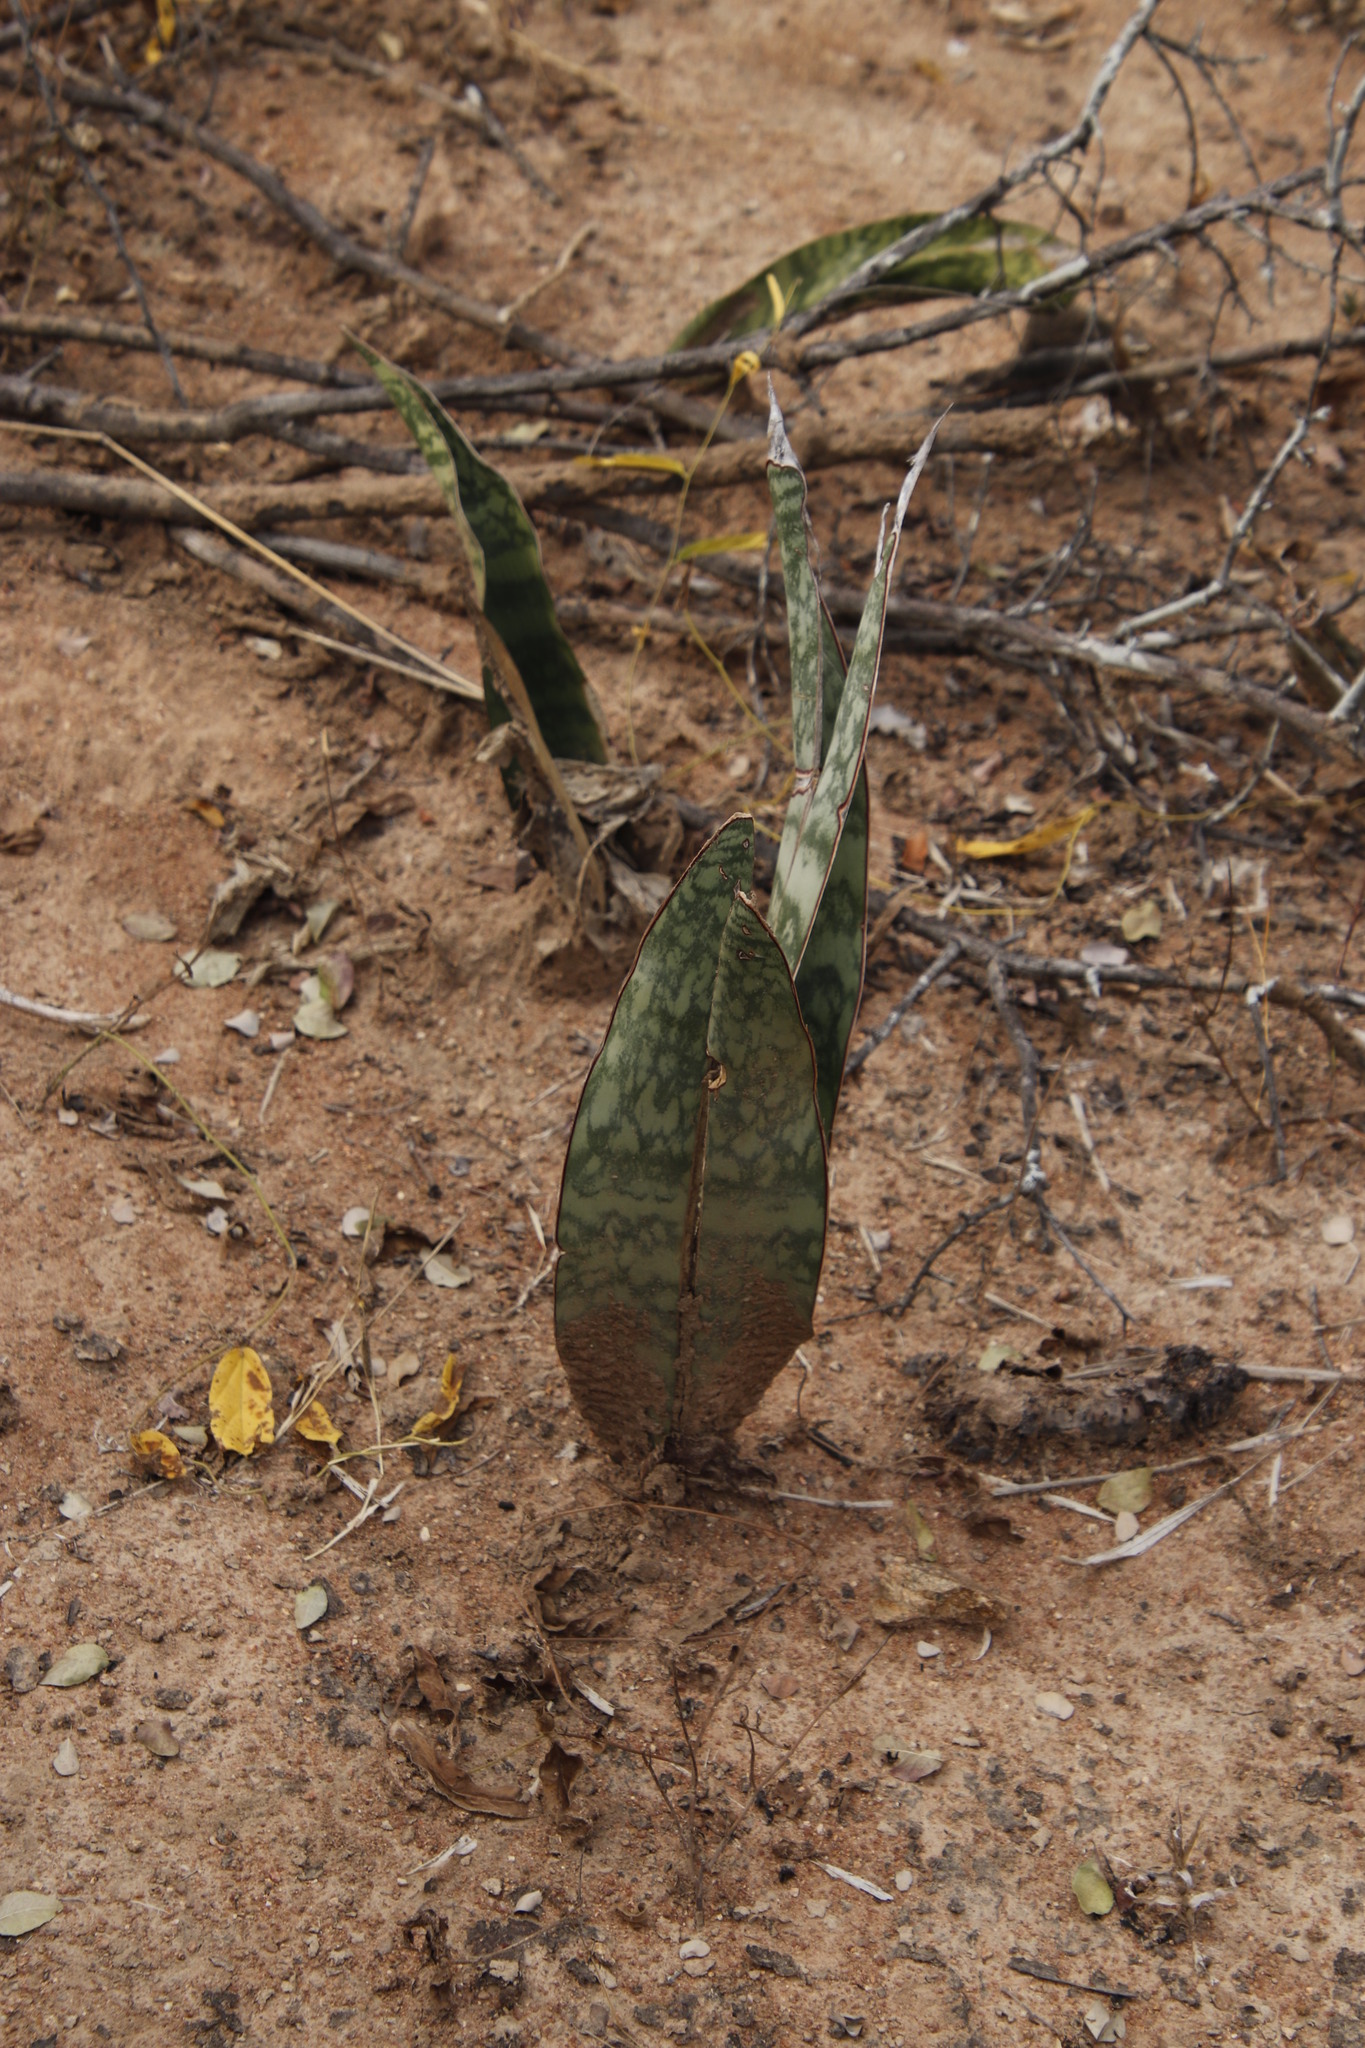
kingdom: Plantae
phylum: Tracheophyta
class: Liliopsida
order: Asparagales
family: Asparagaceae
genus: Dracaena
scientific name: Dracaena hyacinthoides
